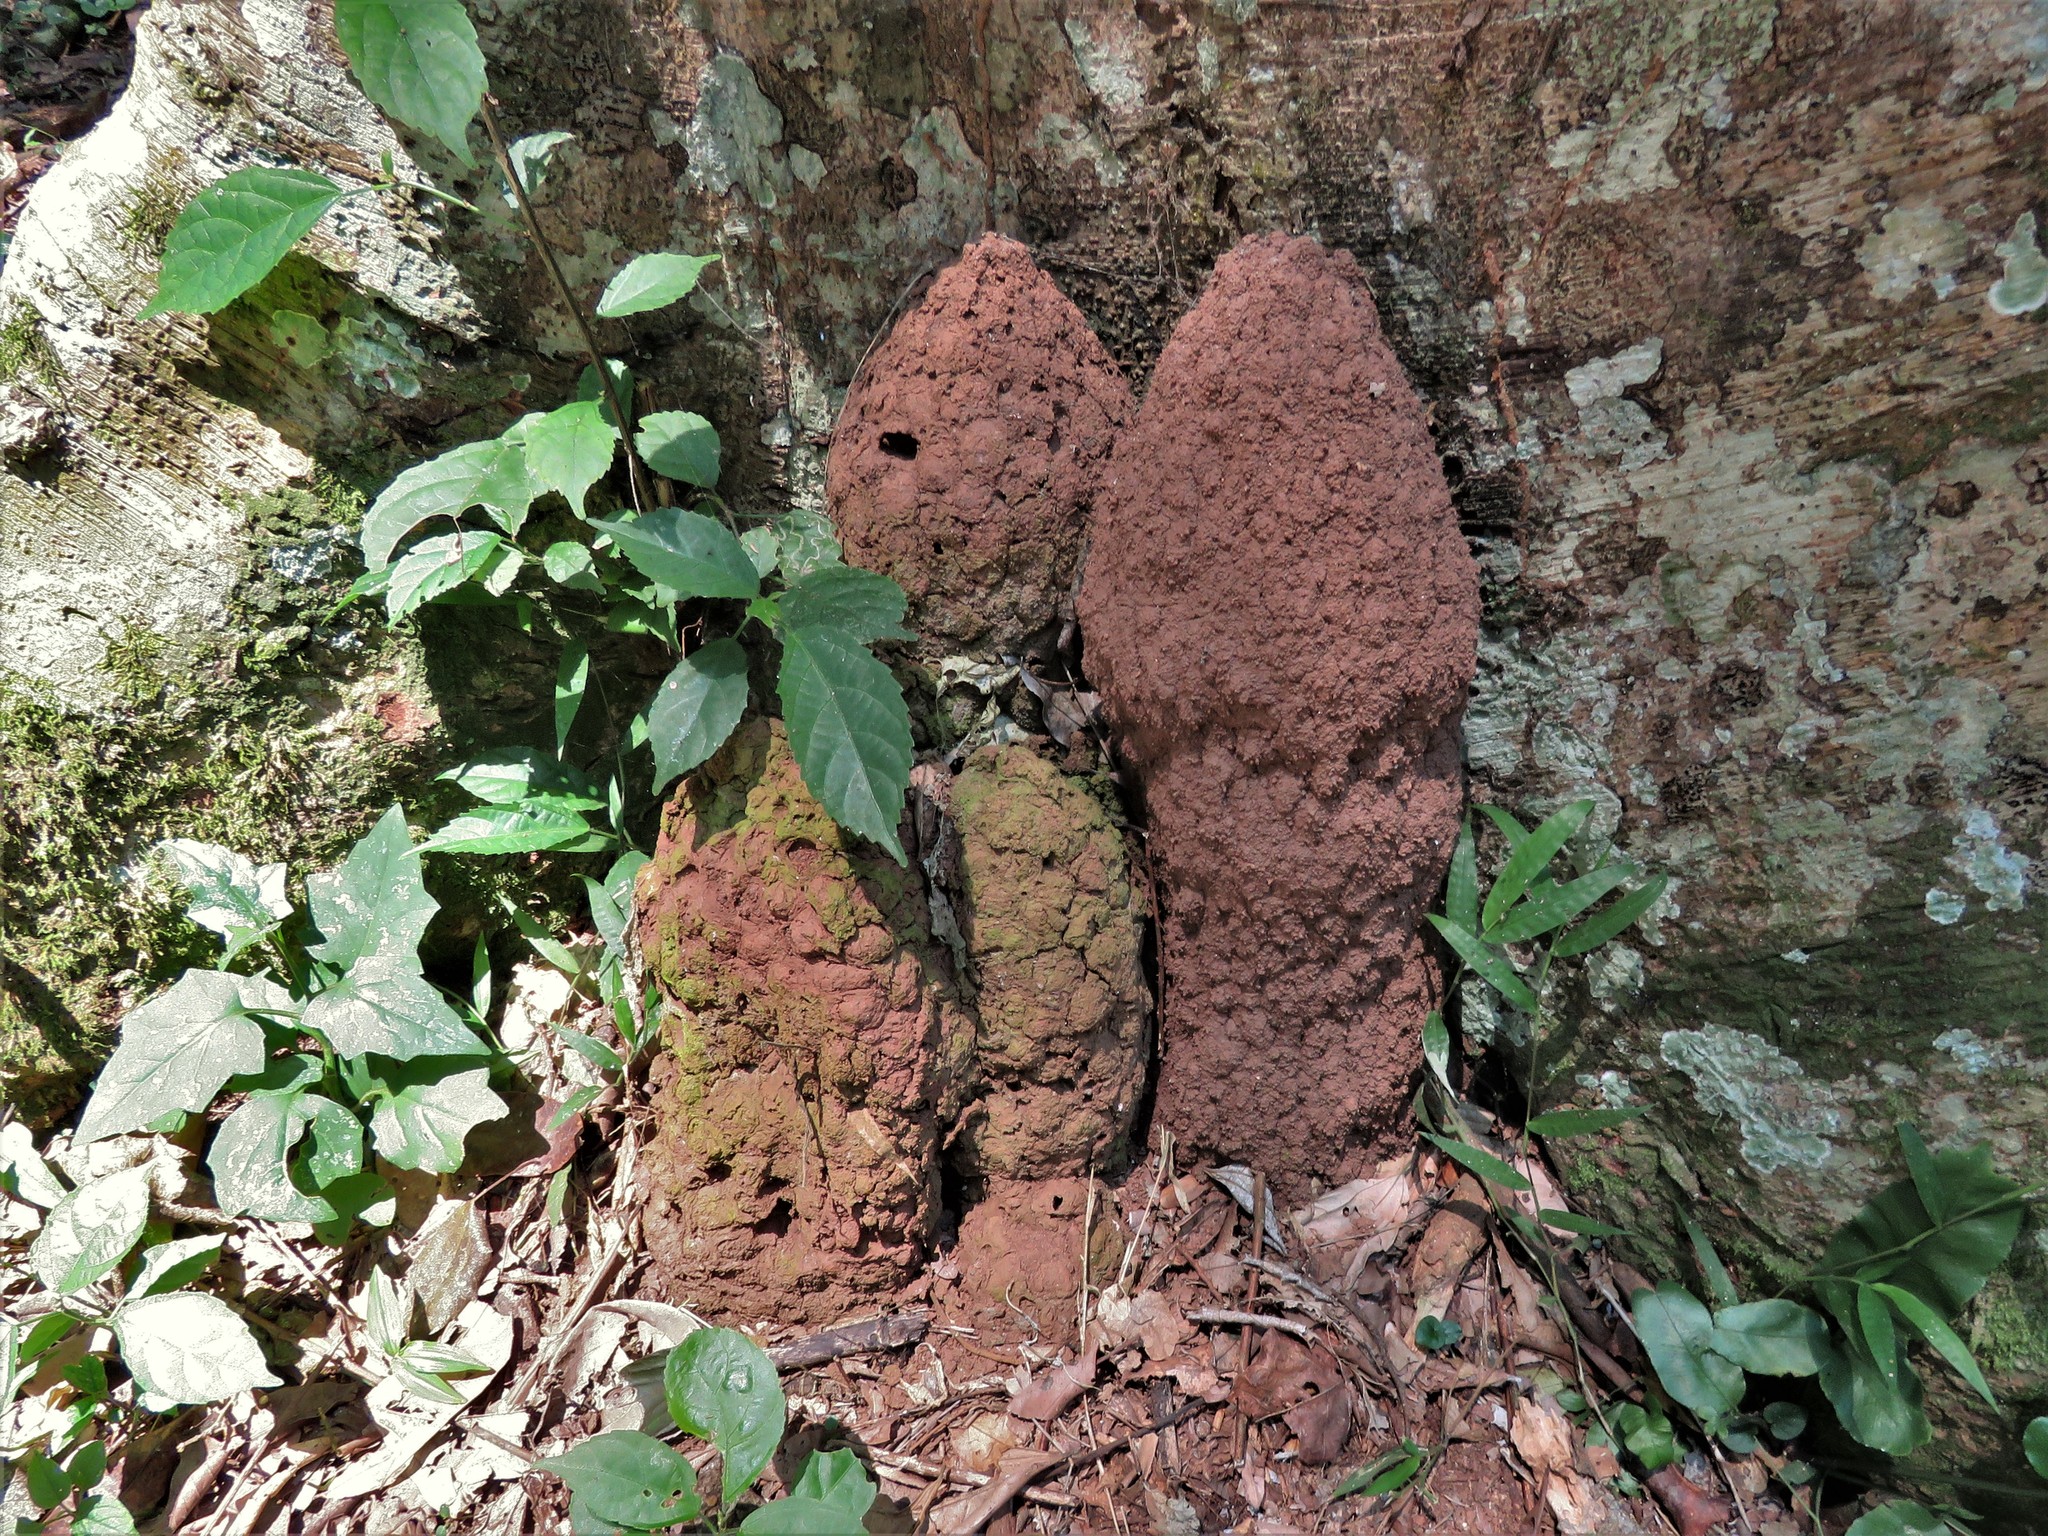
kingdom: Animalia
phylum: Arthropoda
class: Insecta
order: Blattodea
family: Termitidae
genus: Acanthotermes
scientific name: Acanthotermes acanthothorax
